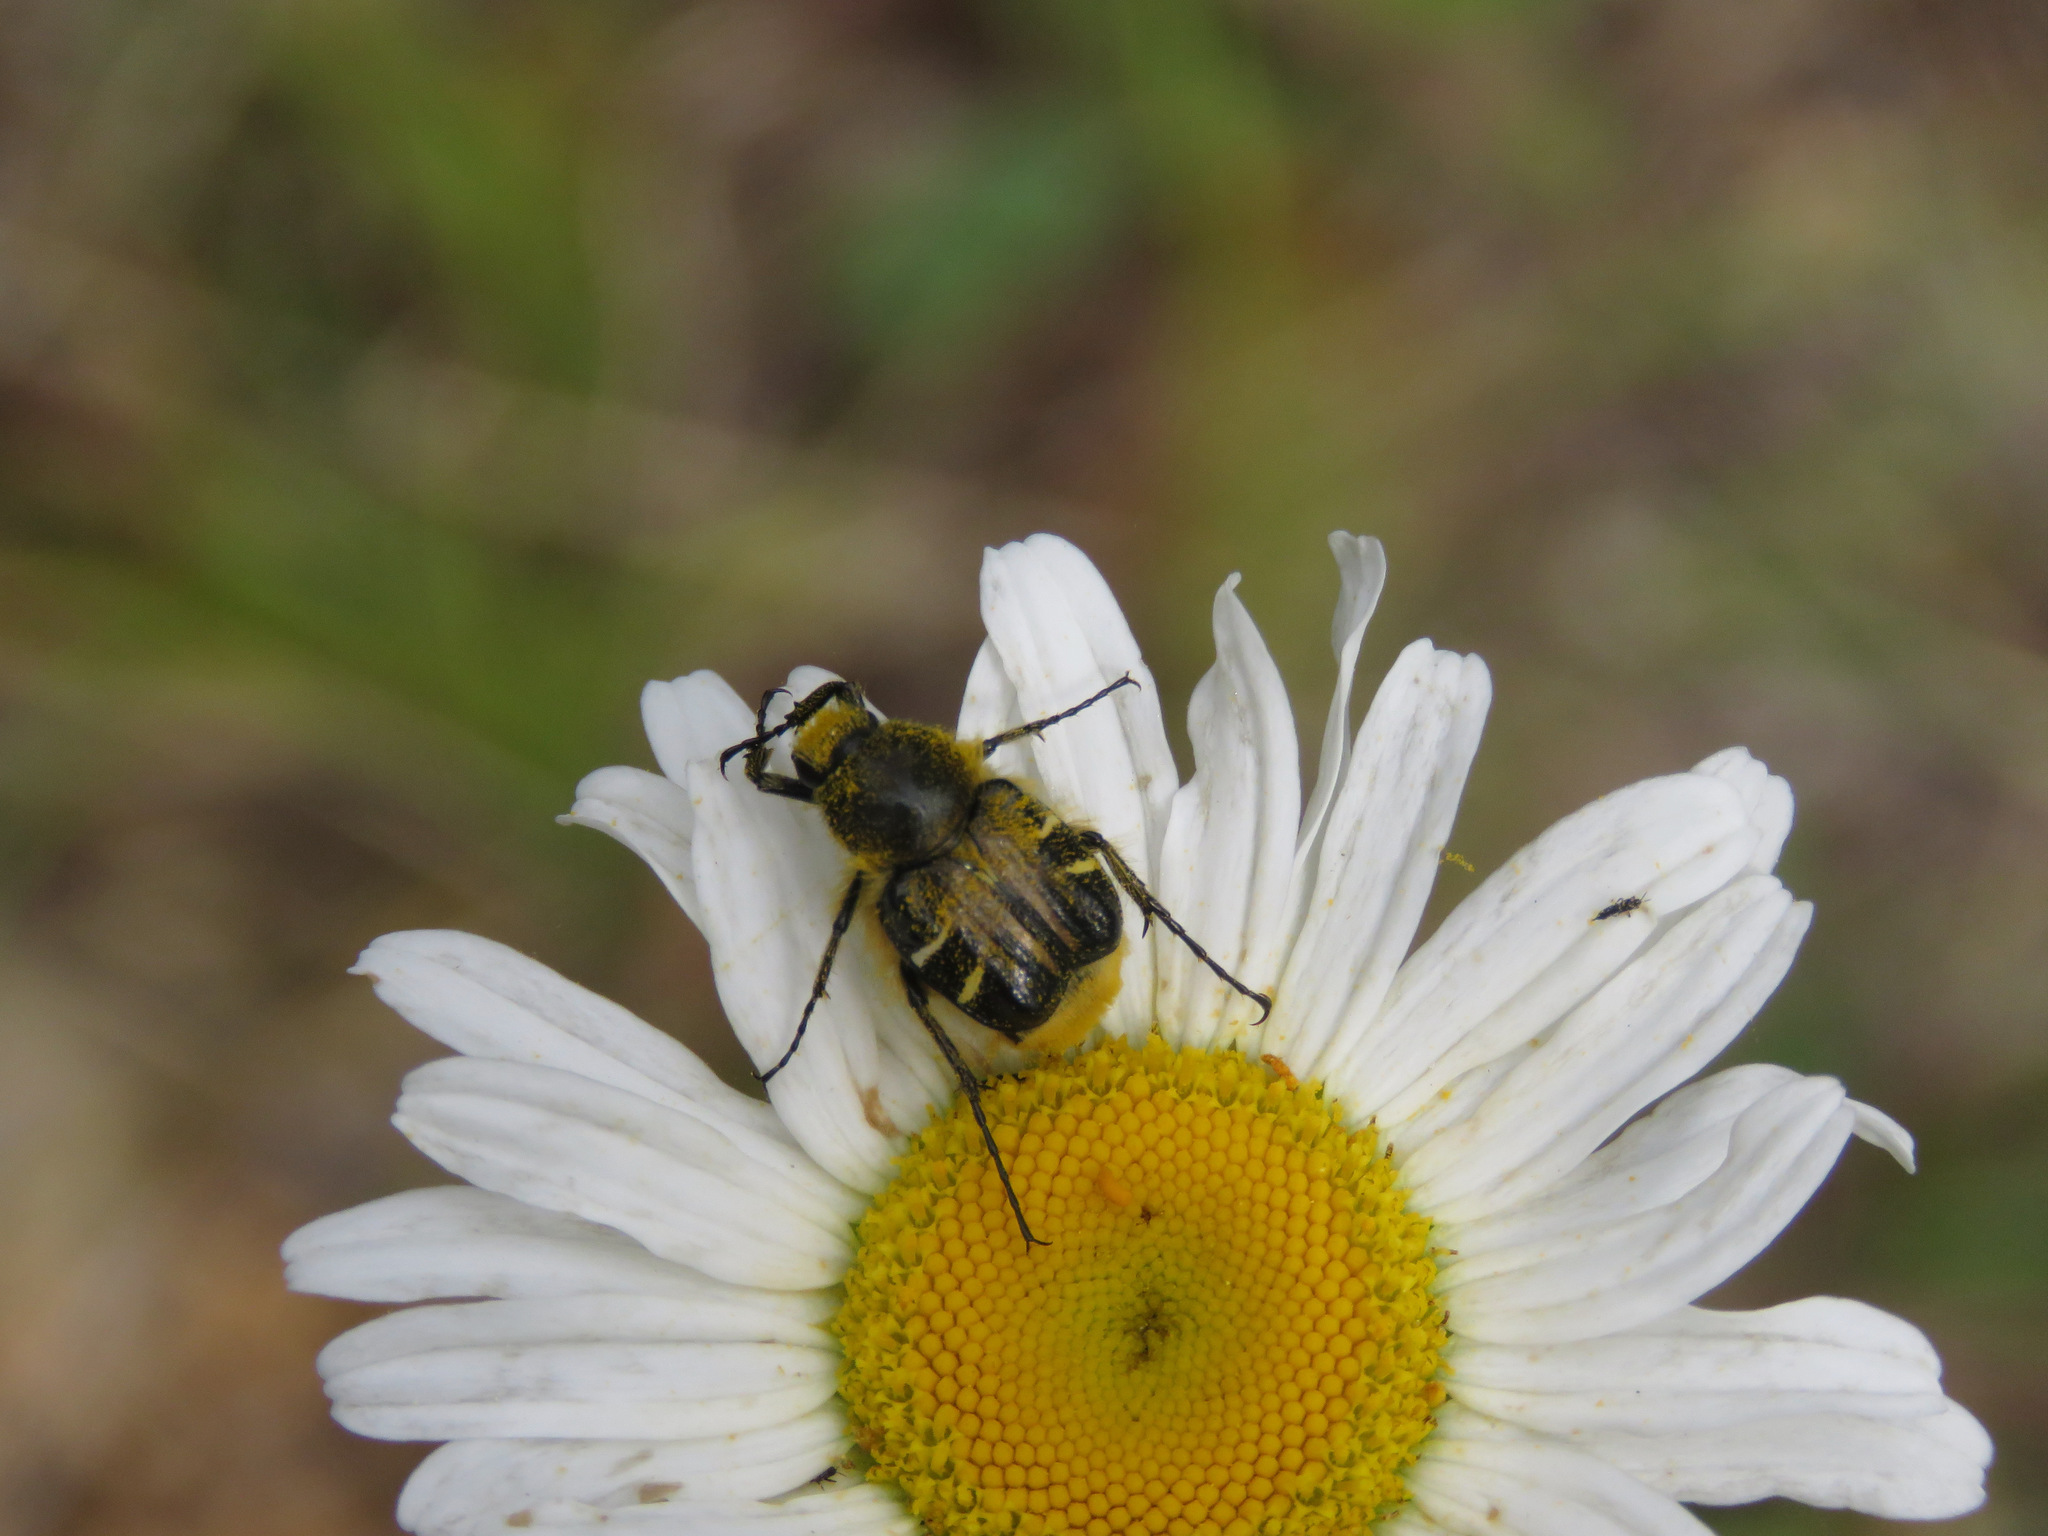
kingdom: Animalia
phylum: Arthropoda
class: Insecta
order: Coleoptera
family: Scarabaeidae
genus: Trichiotinus
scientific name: Trichiotinus assimilis
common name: Bee-mimic beetle
